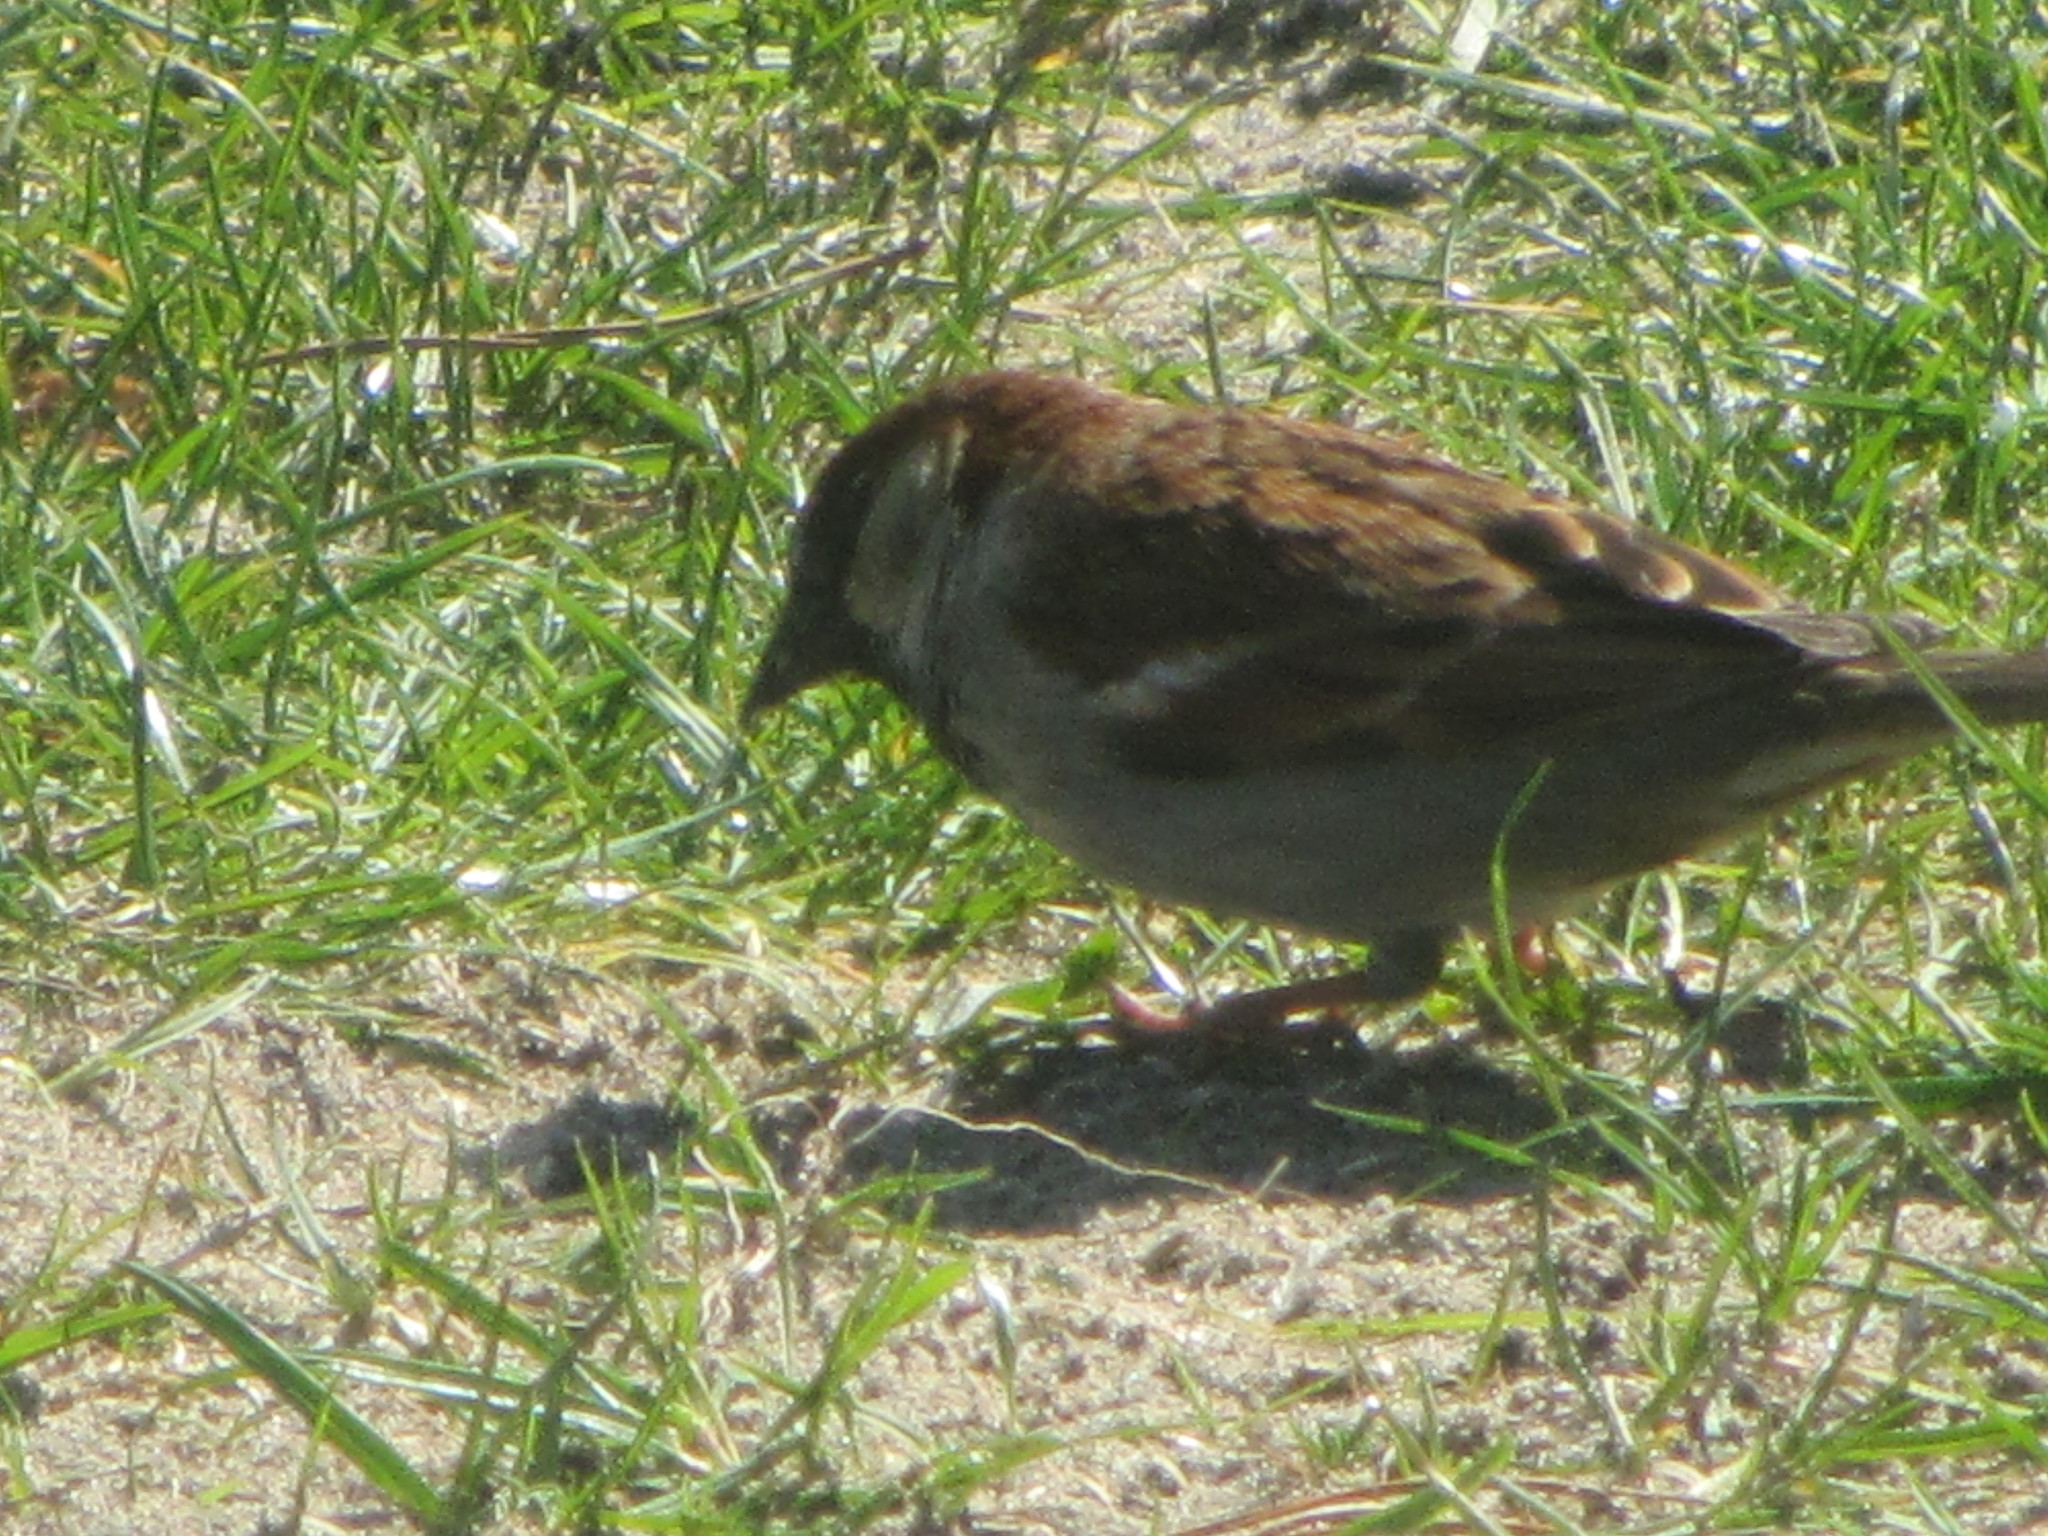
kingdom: Animalia
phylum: Chordata
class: Aves
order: Passeriformes
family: Passeridae
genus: Passer
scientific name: Passer domesticus
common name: House sparrow
